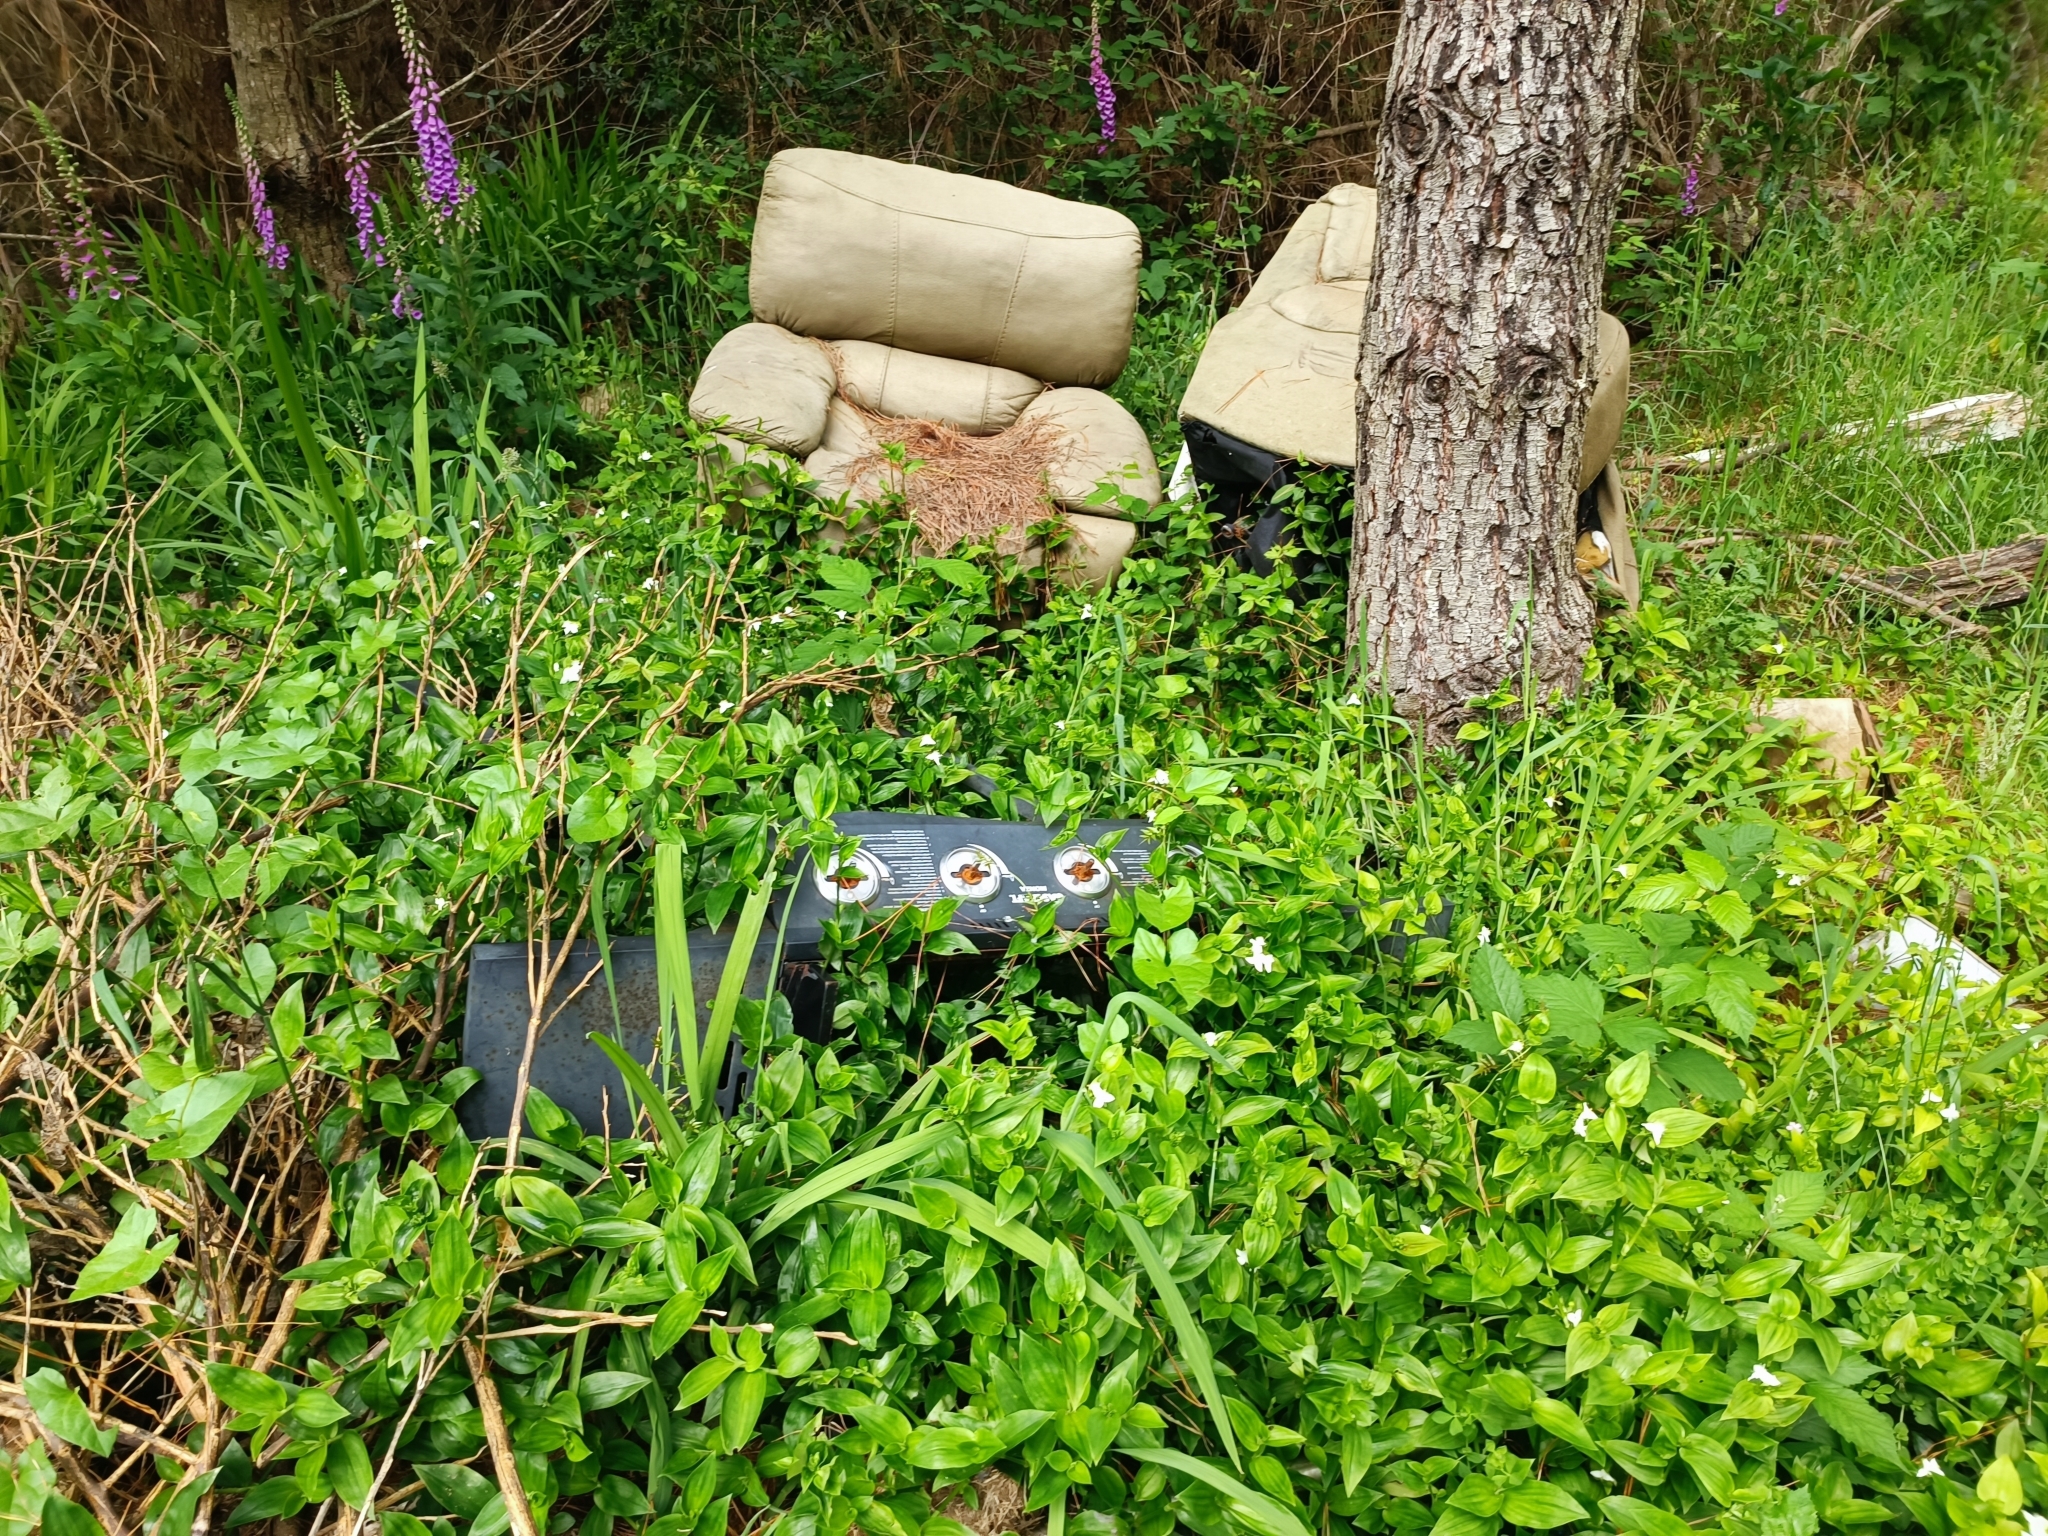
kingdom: Plantae
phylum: Tracheophyta
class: Liliopsida
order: Commelinales
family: Commelinaceae
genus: Tradescantia
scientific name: Tradescantia fluminensis
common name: Wandering-jew
